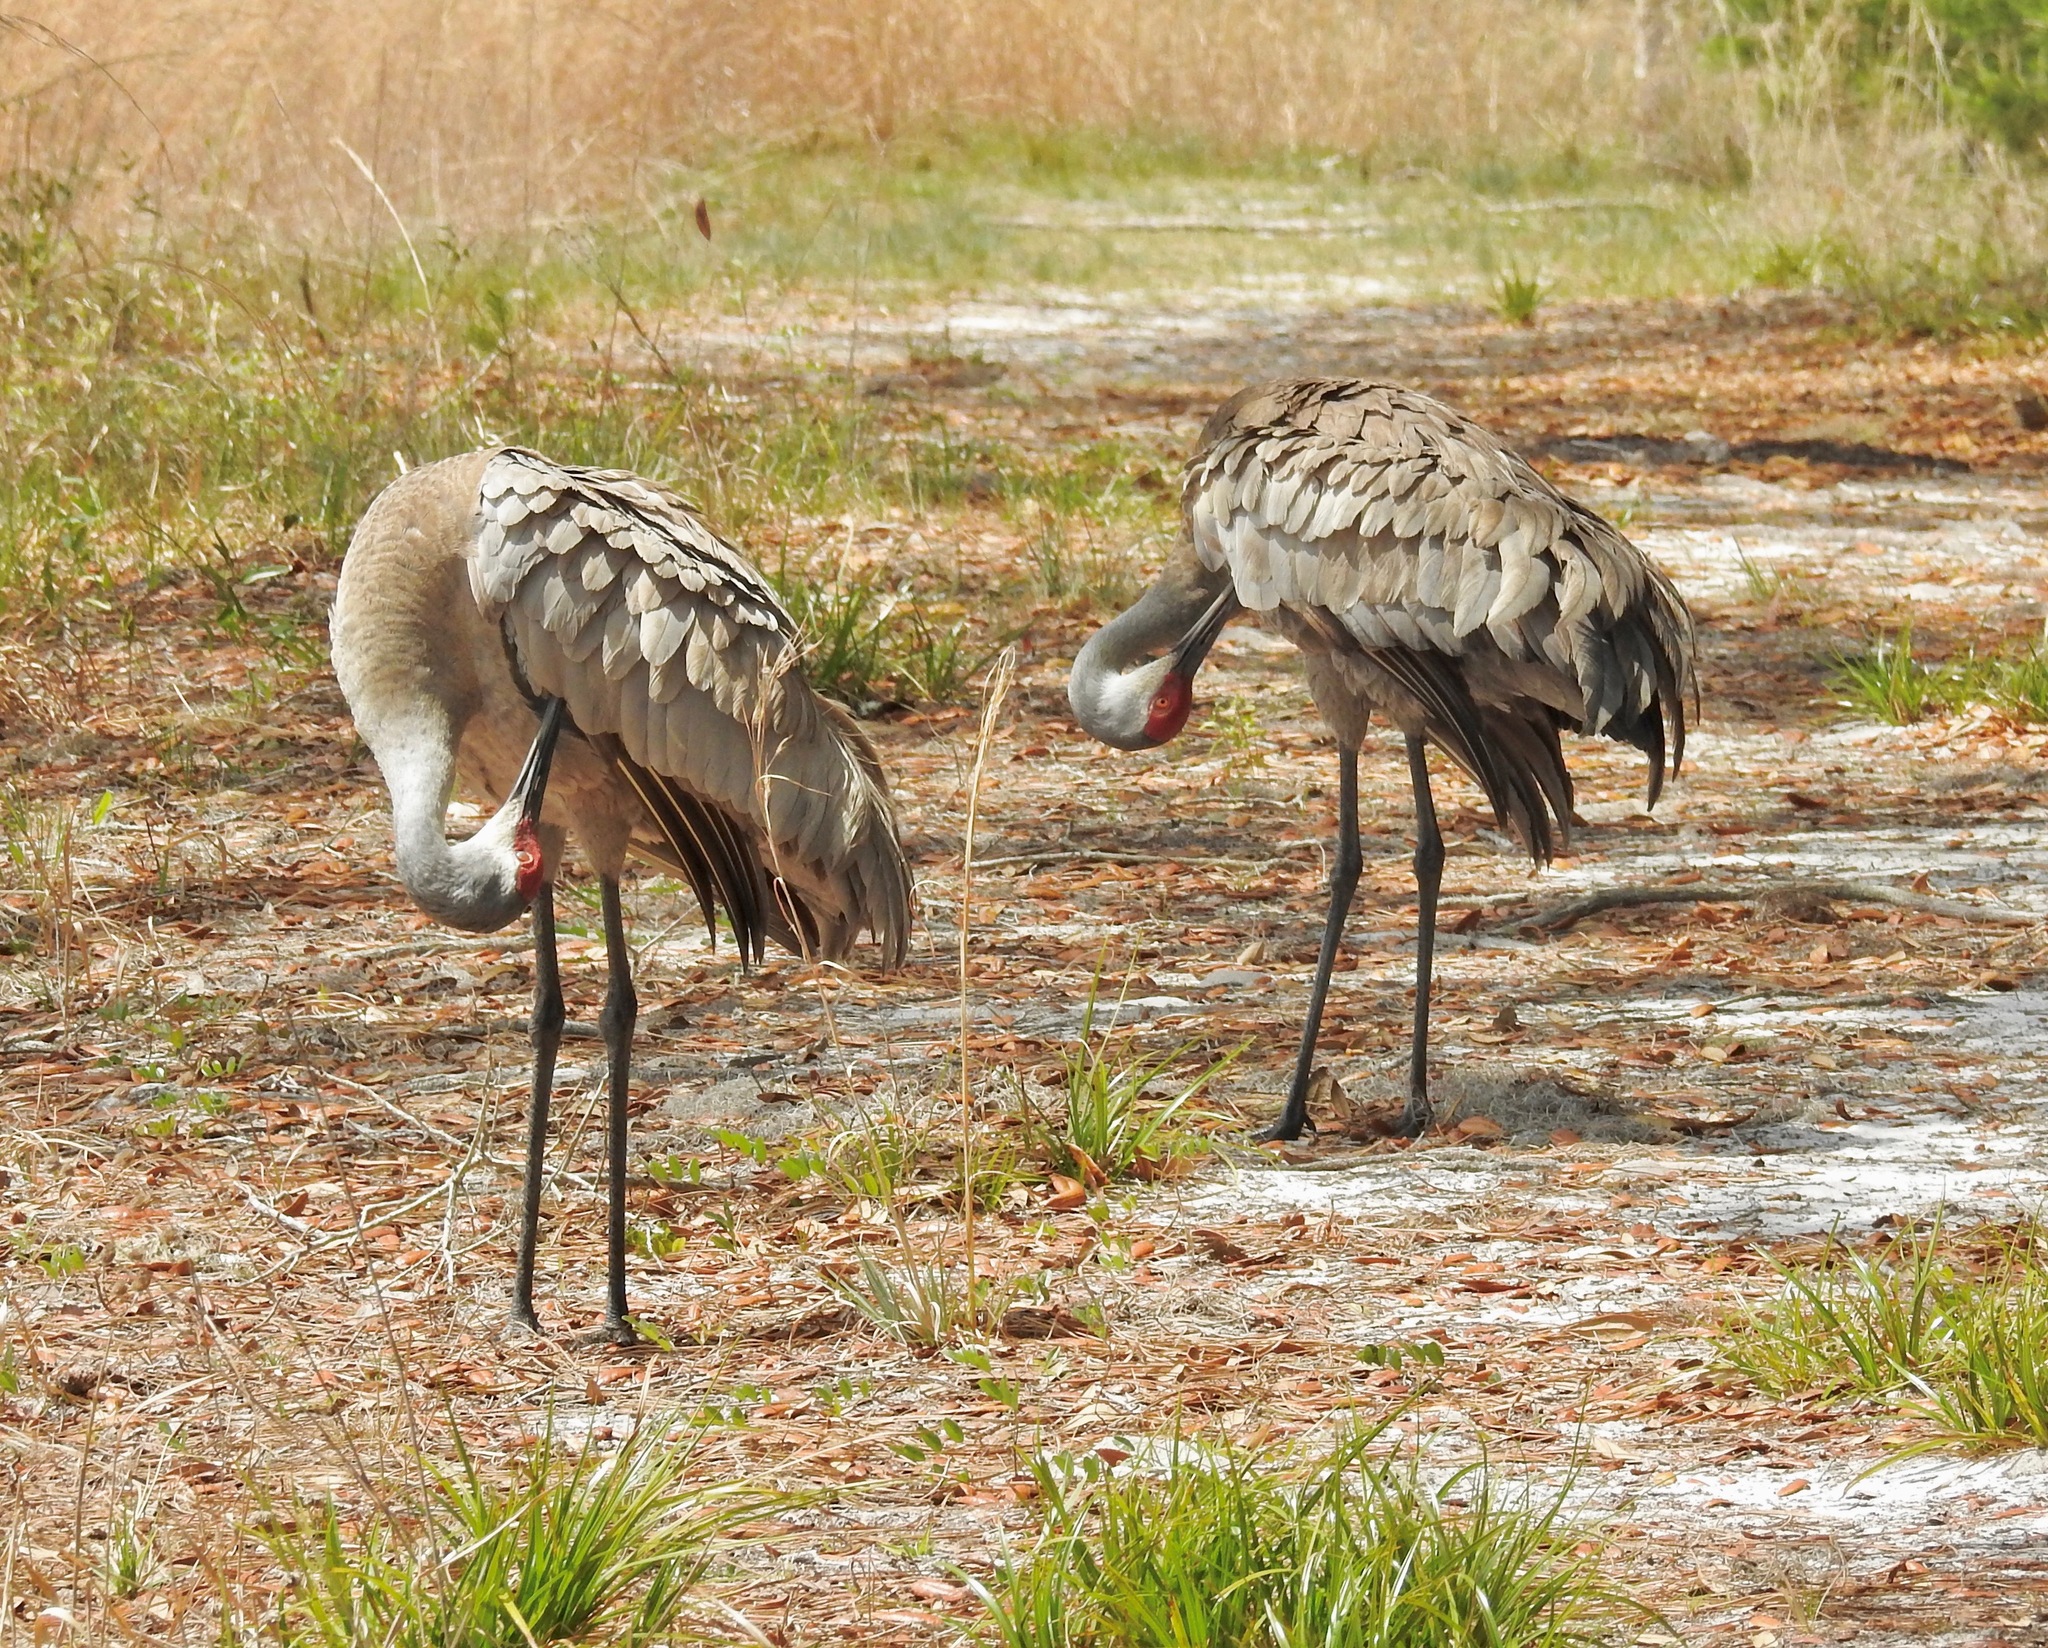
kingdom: Animalia
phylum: Chordata
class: Aves
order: Gruiformes
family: Gruidae
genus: Grus
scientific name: Grus canadensis
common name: Sandhill crane
